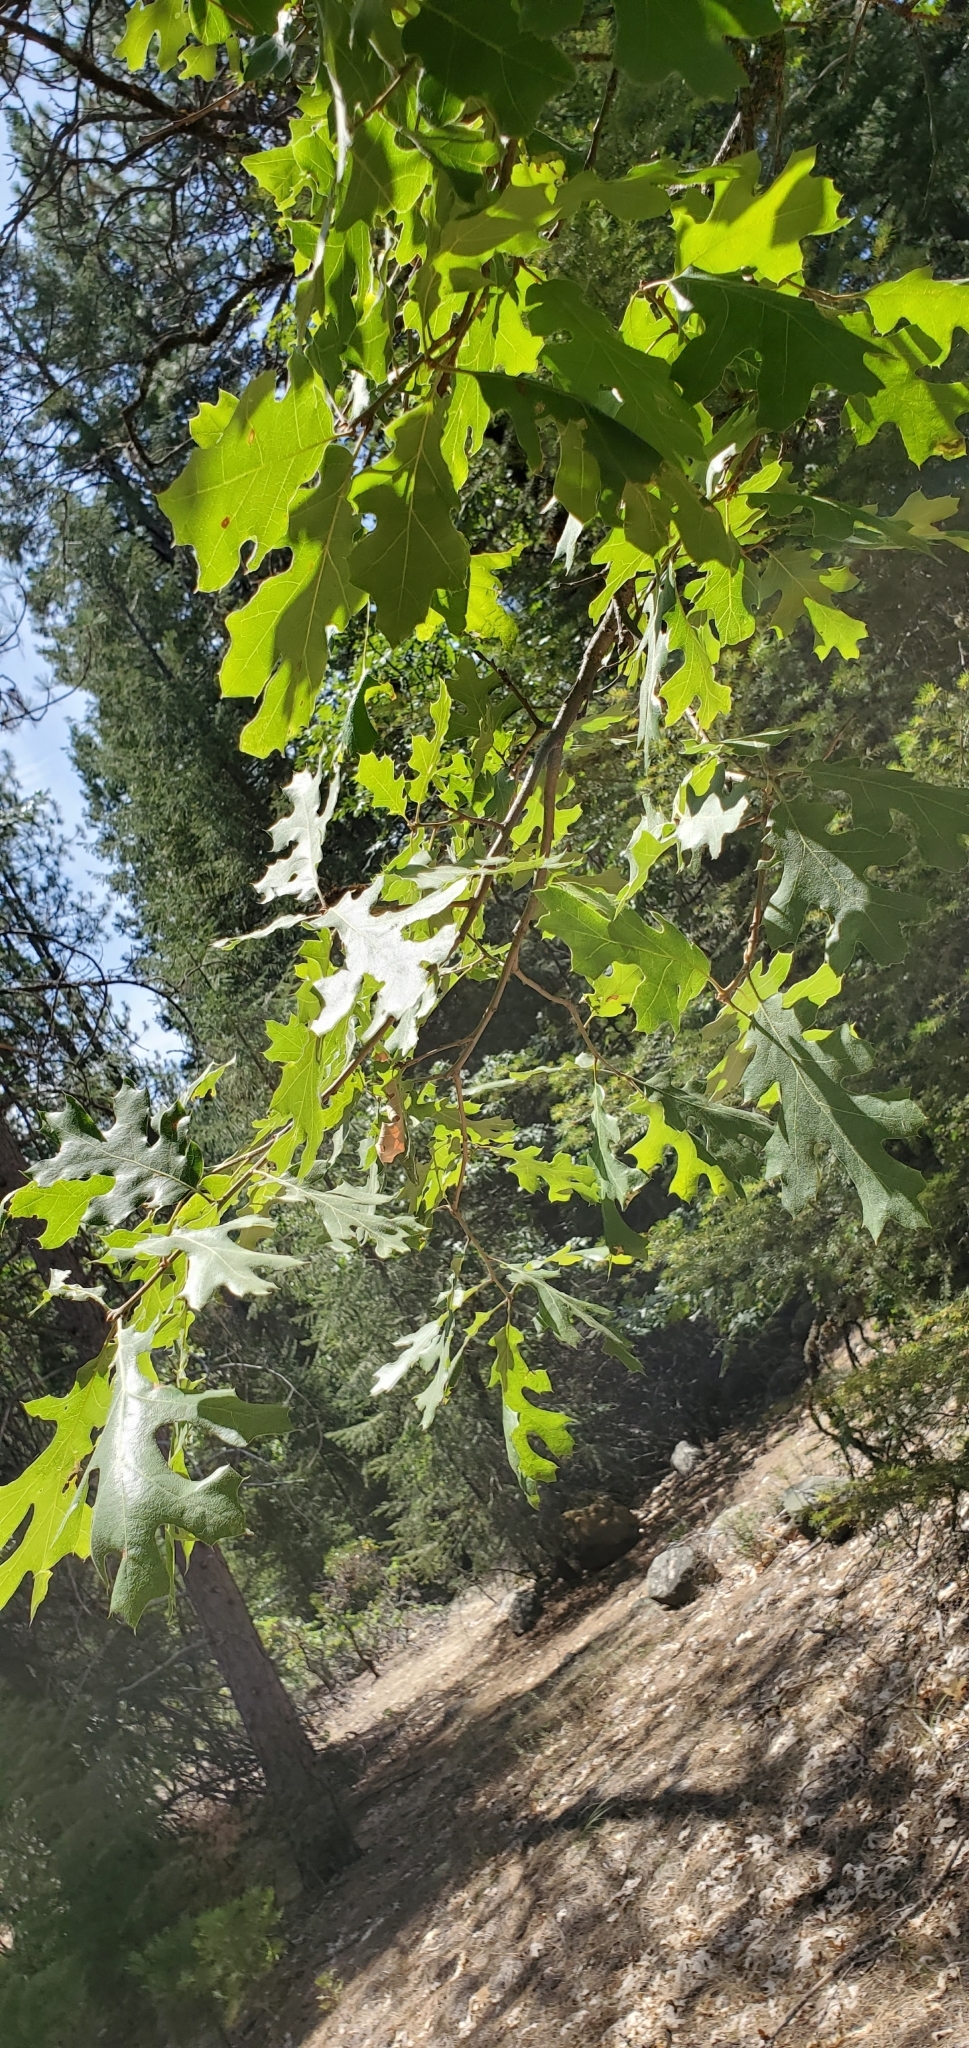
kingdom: Plantae
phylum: Tracheophyta
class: Magnoliopsida
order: Fagales
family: Fagaceae
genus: Quercus
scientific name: Quercus kelloggii
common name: California black oak
